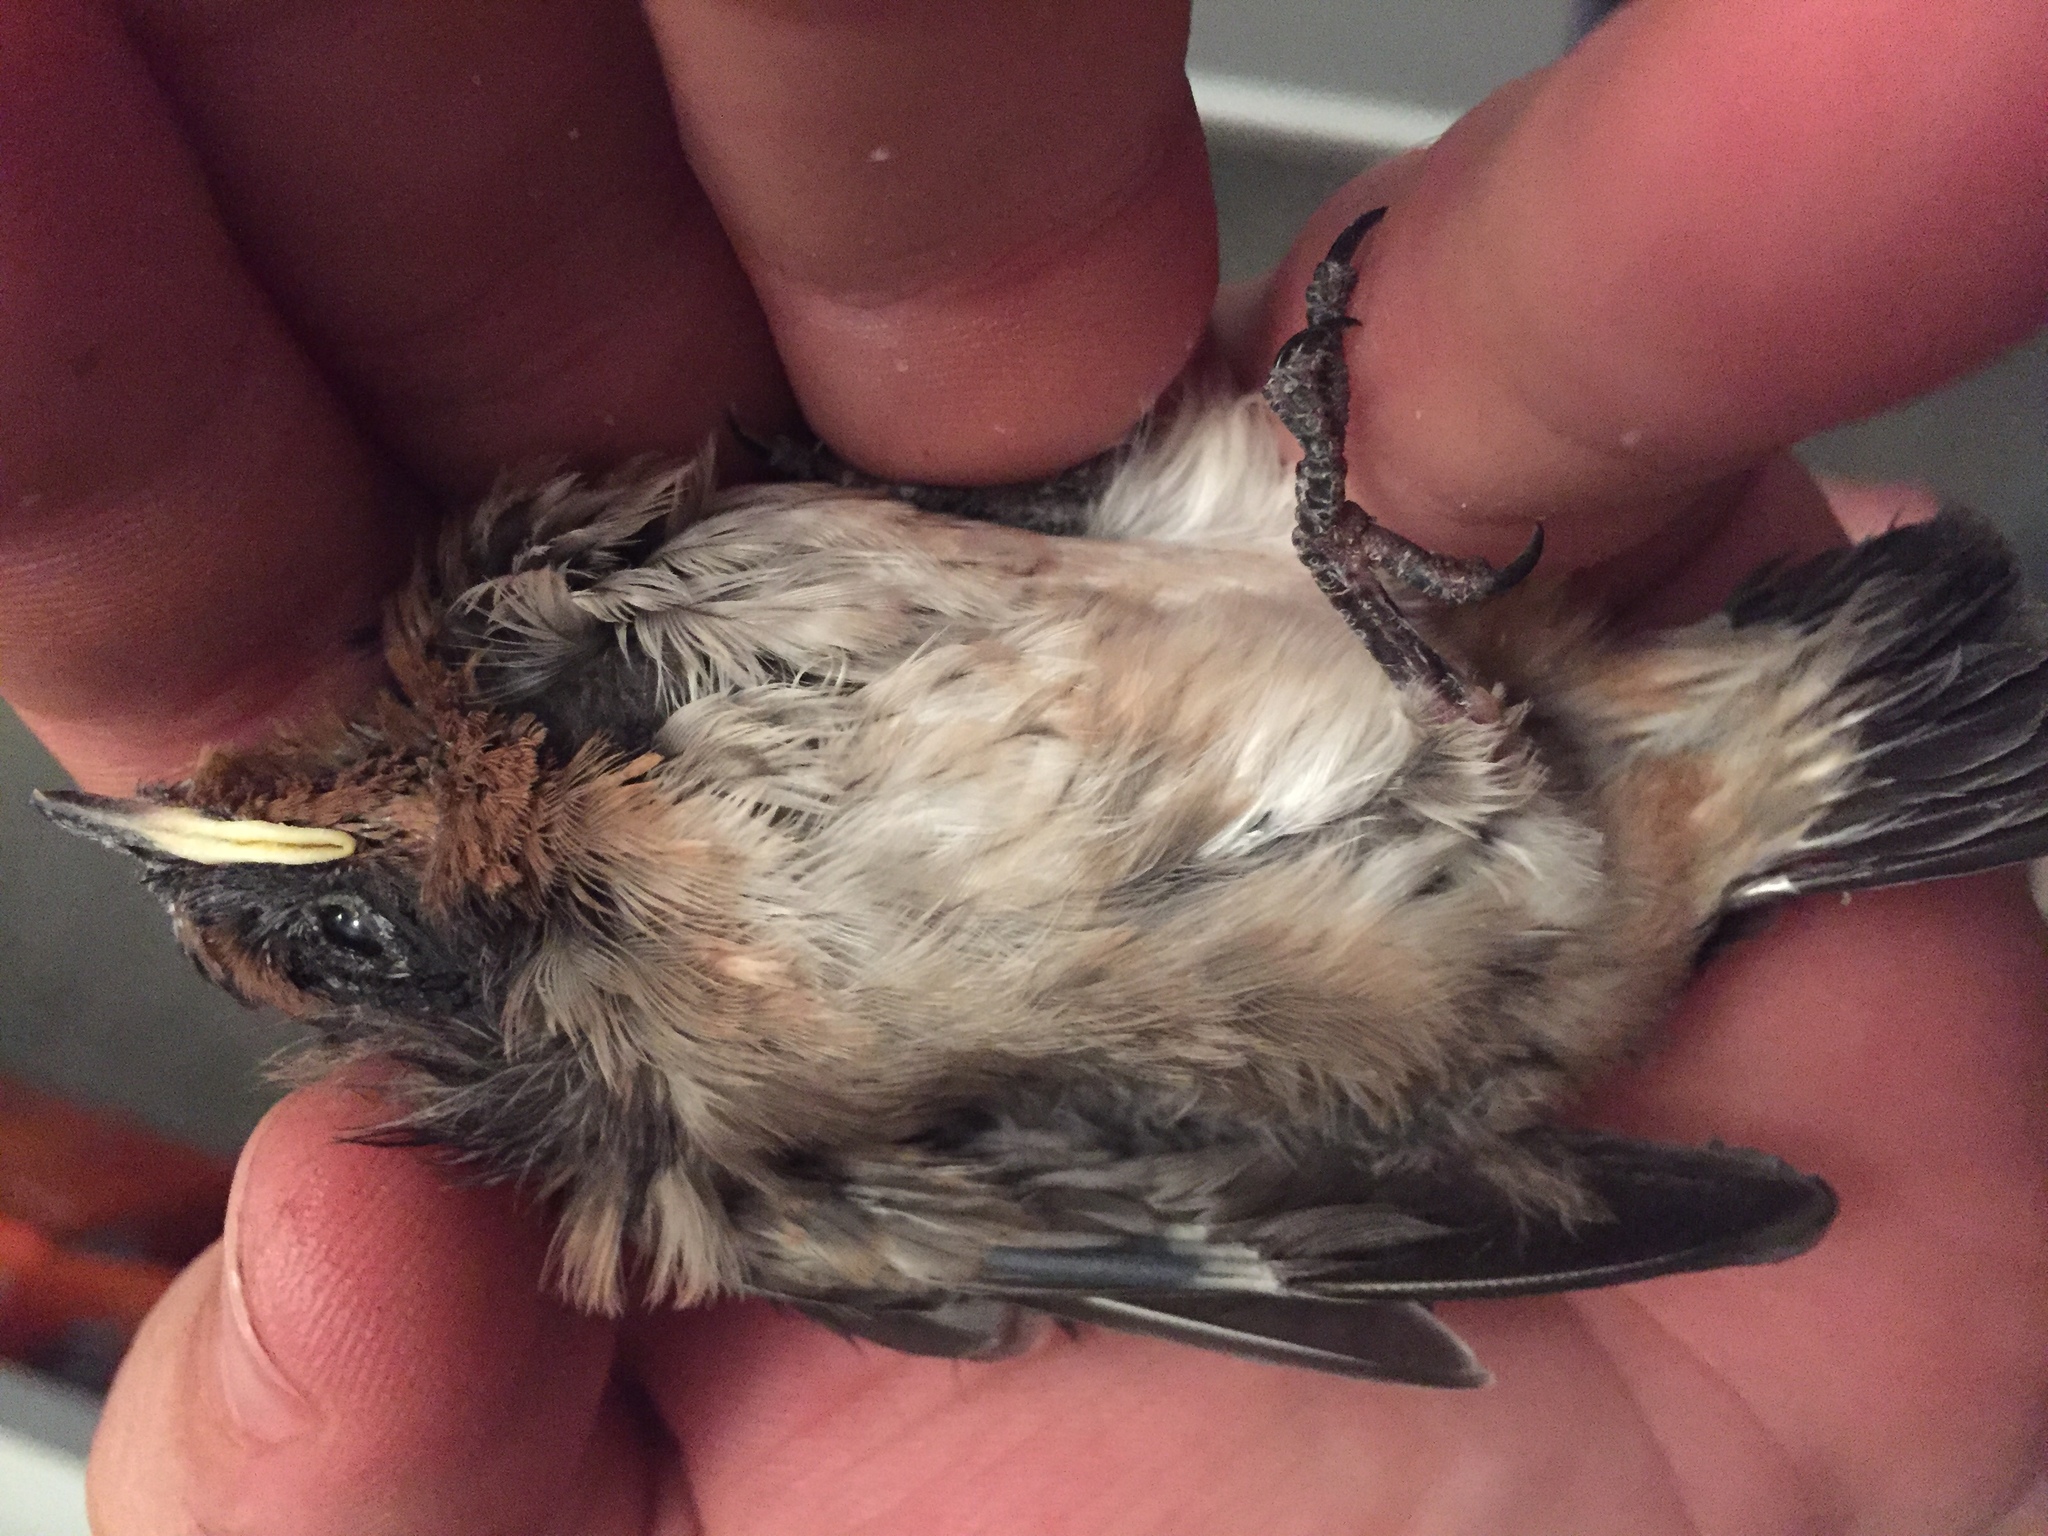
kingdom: Animalia
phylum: Chordata
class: Aves
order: Passeriformes
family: Hirundinidae
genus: Hirundo
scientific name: Hirundo neoxena
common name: Welcome swallow
